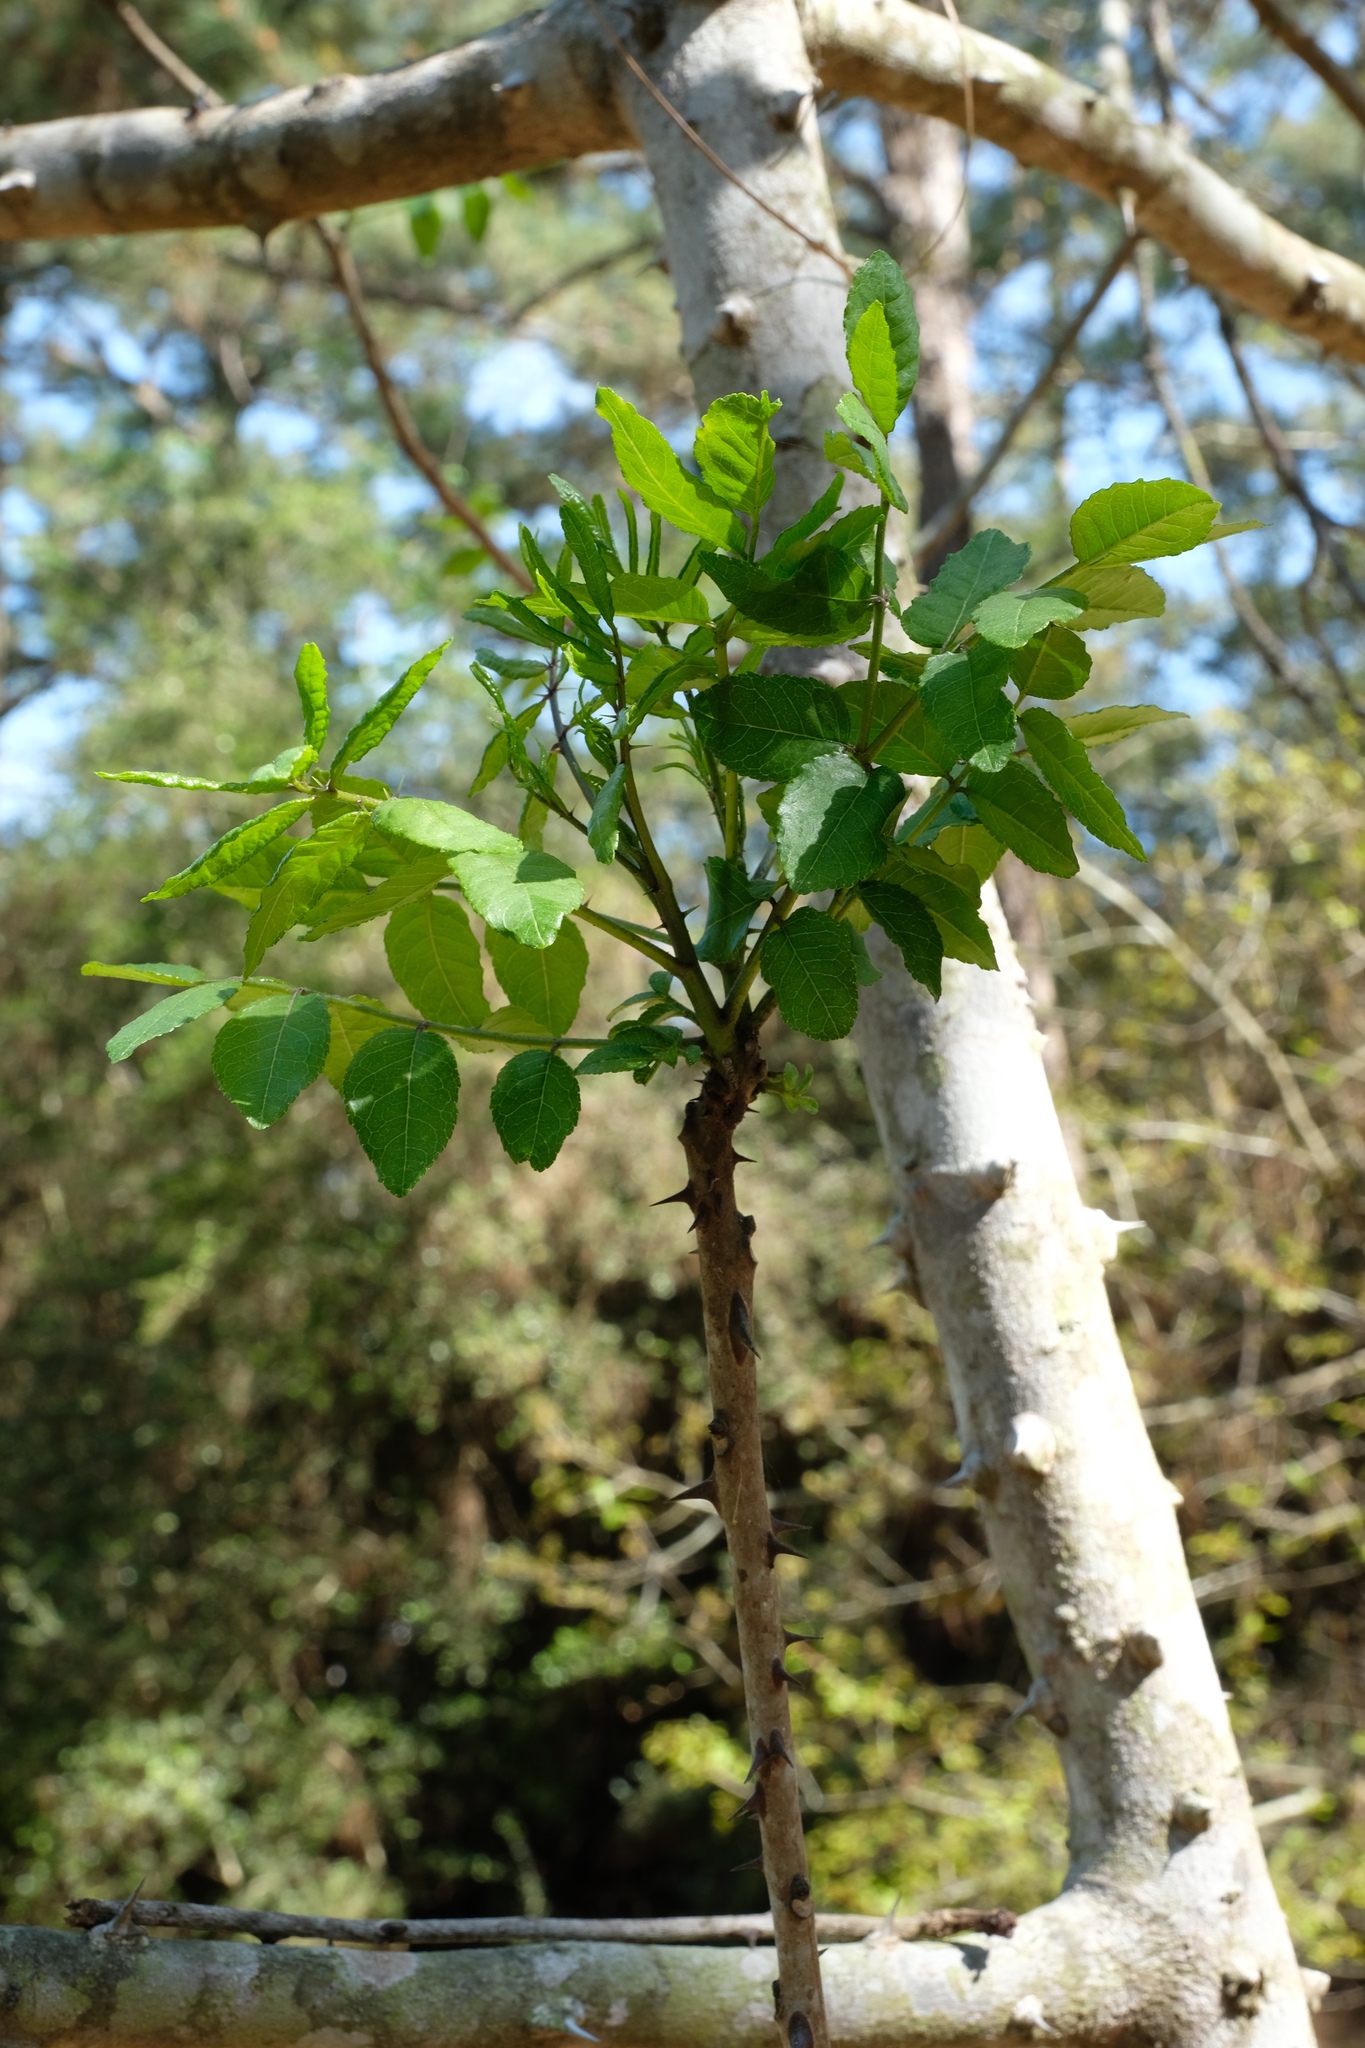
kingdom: Plantae
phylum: Tracheophyta
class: Magnoliopsida
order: Sapindales
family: Rutaceae
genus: Zanthoxylum
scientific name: Zanthoxylum clava-herculis
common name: Hercules'-club
